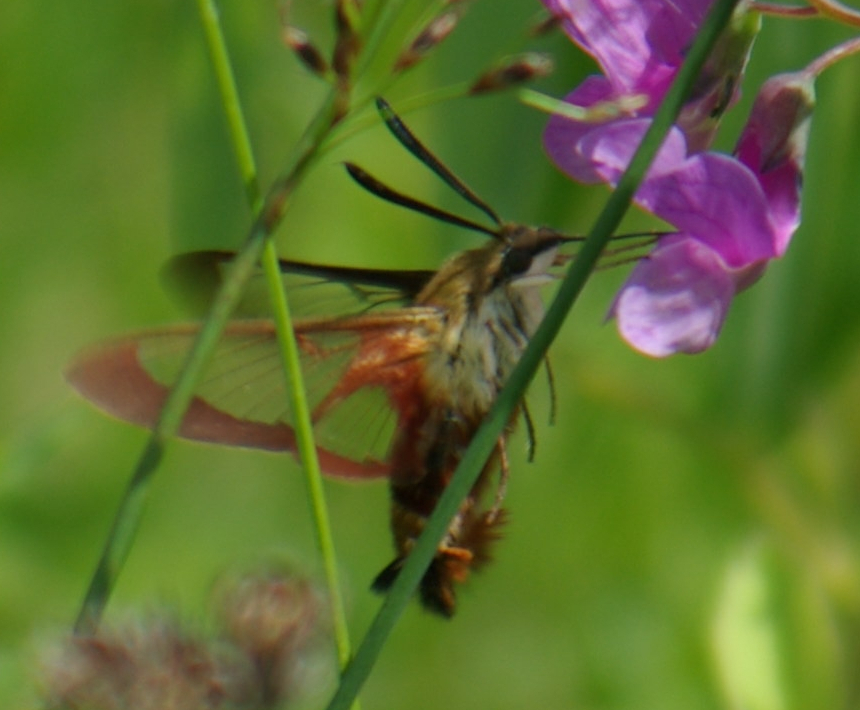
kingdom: Animalia
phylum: Arthropoda
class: Insecta
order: Lepidoptera
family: Sphingidae
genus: Hemaris
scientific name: Hemaris thysbe
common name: Common clear-wing
